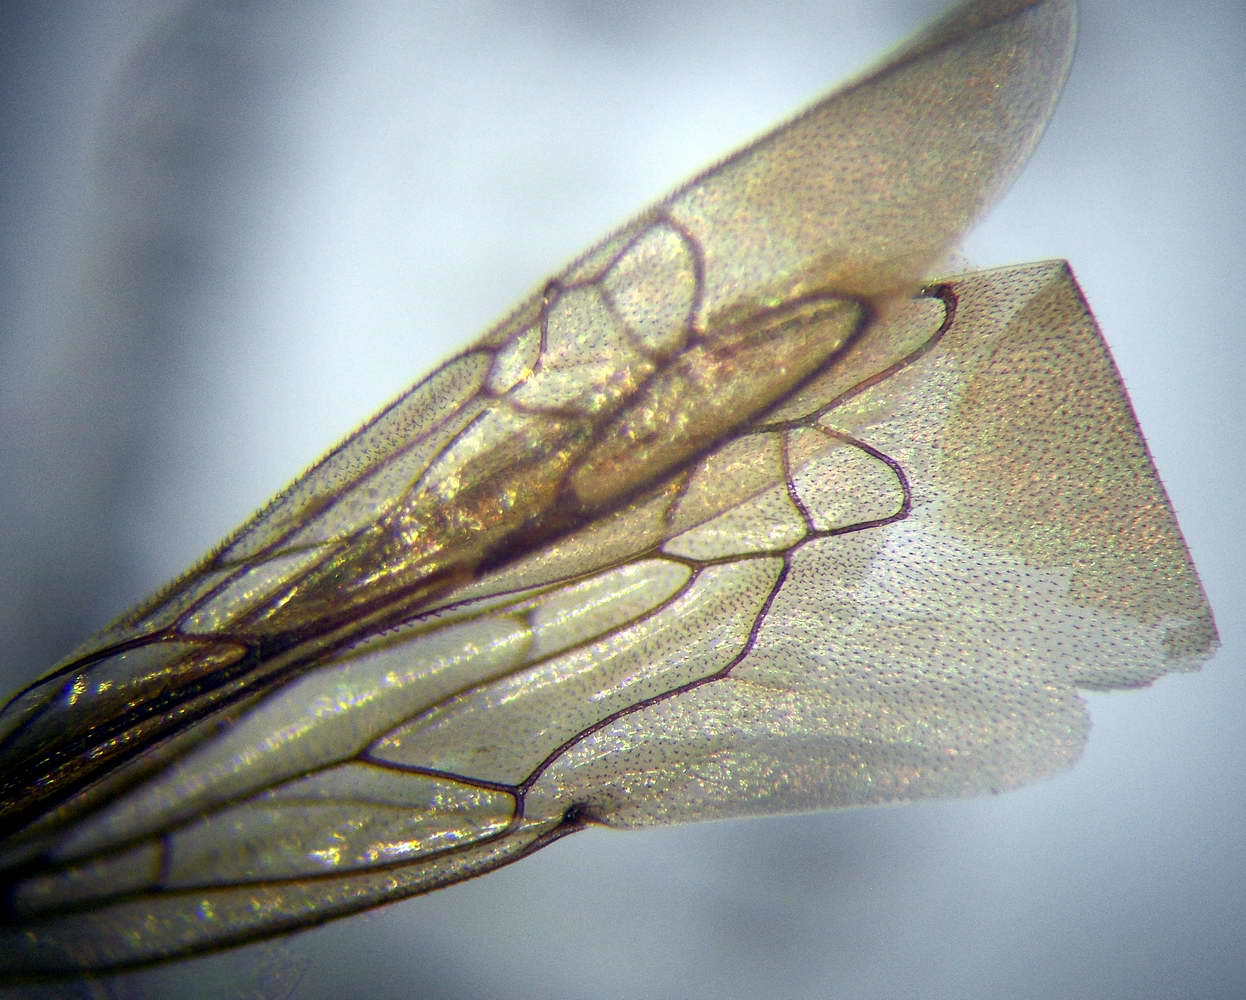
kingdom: Animalia
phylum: Arthropoda
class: Insecta
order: Hymenoptera
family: Sphecidae
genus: Ammophila
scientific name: Ammophila terminata
